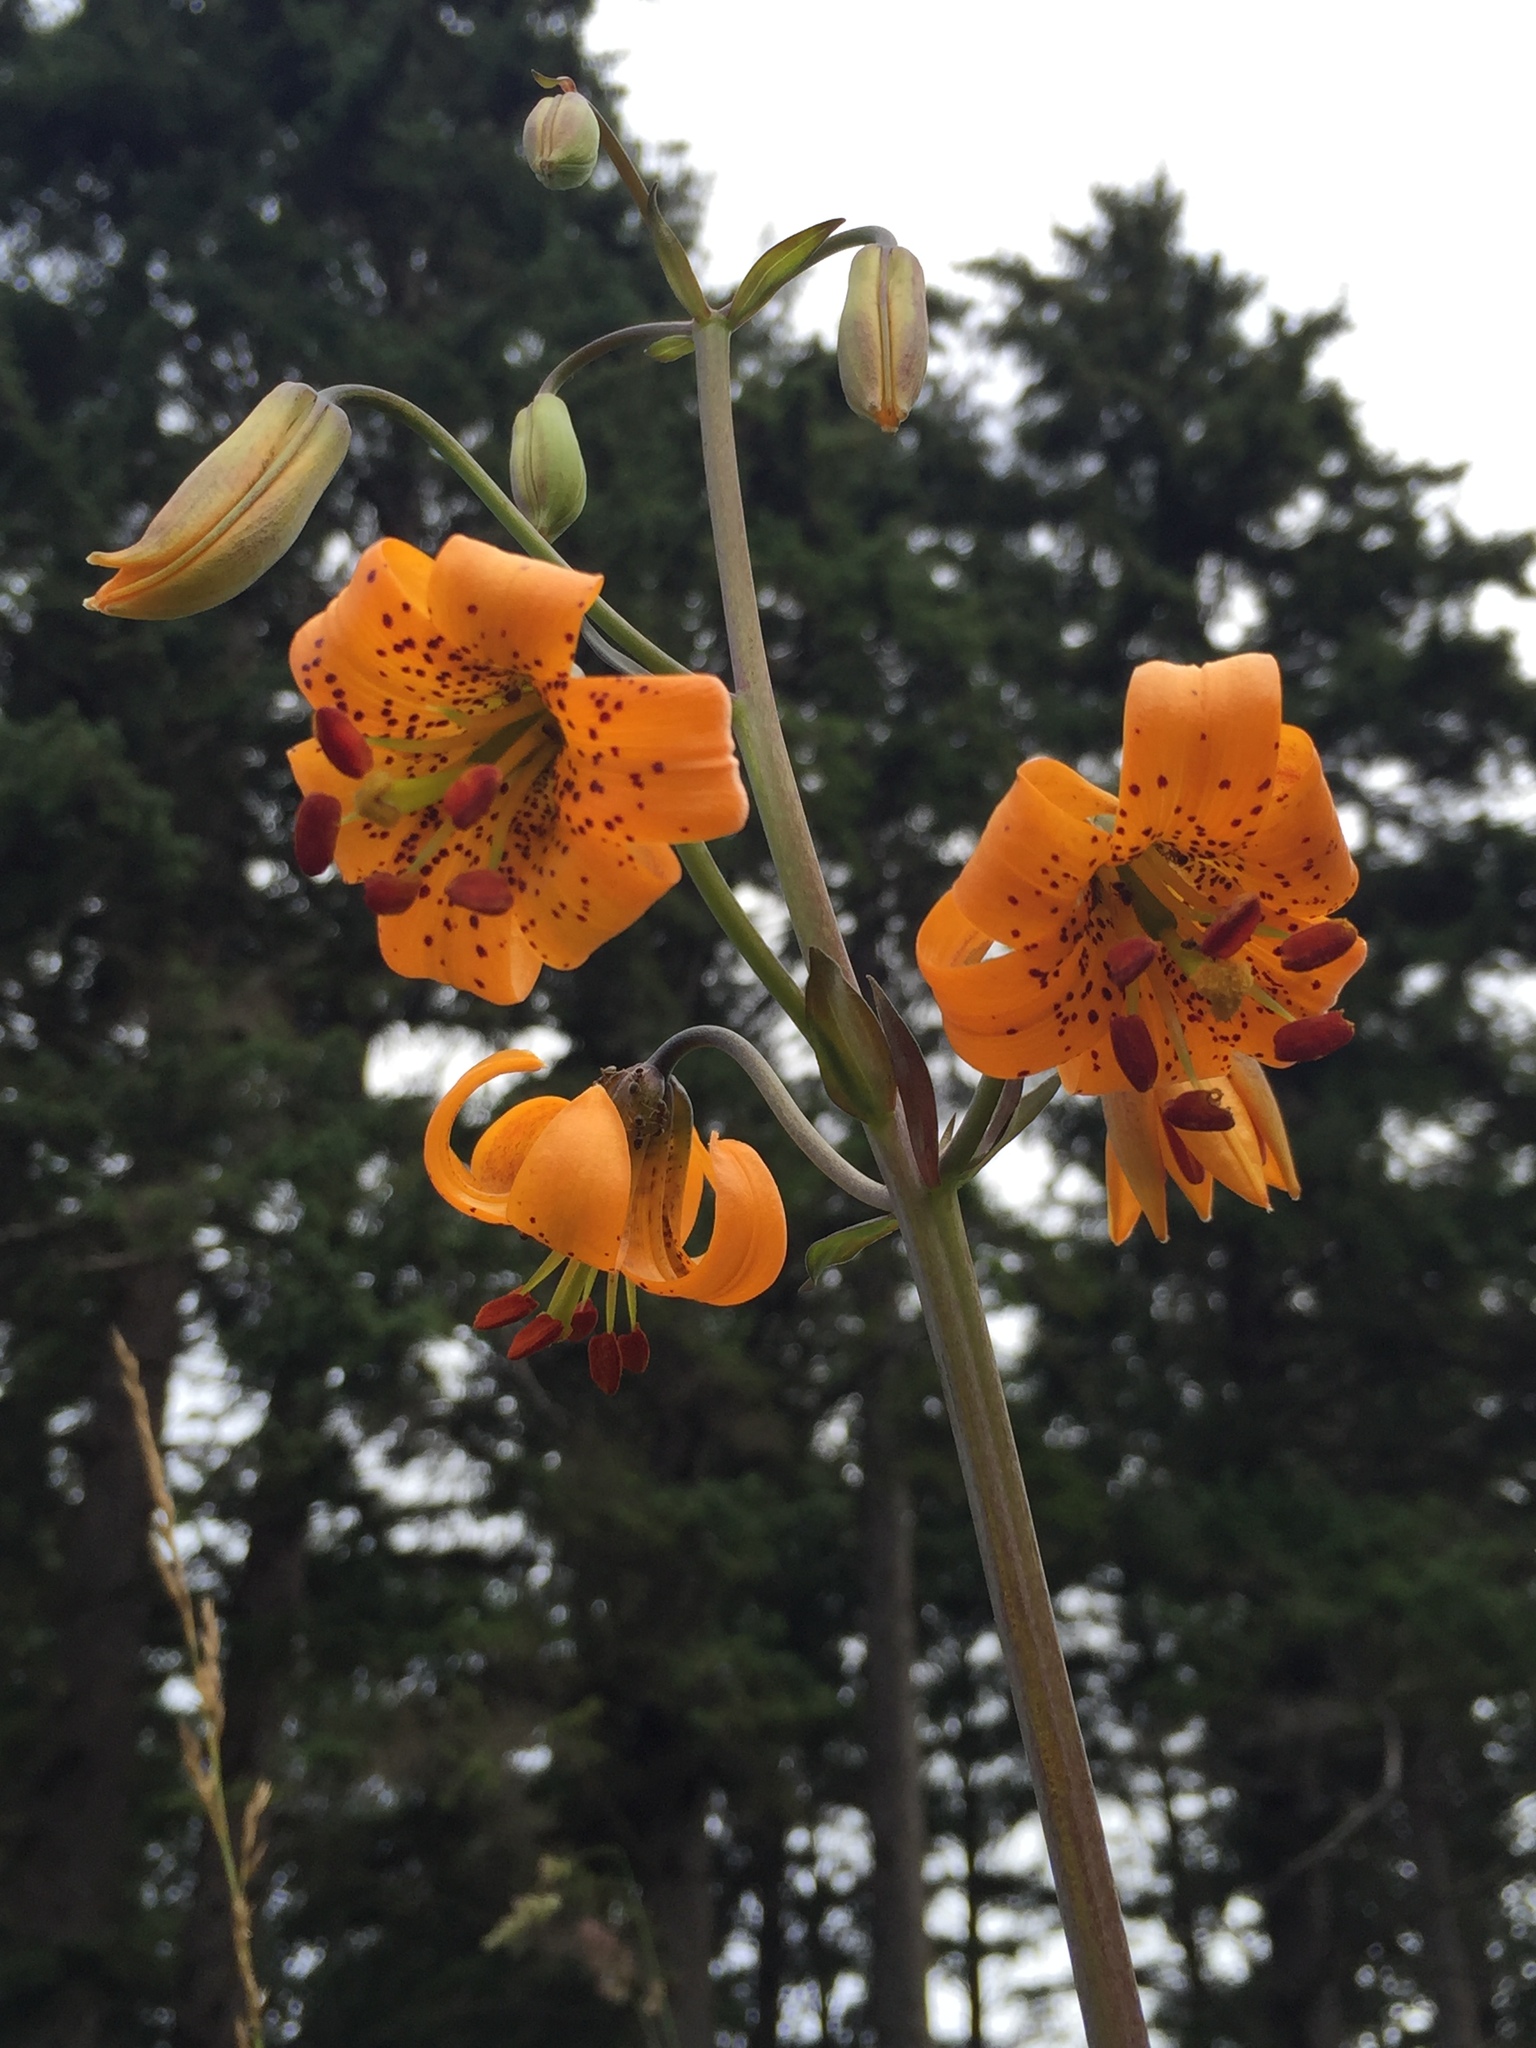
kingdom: Plantae
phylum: Tracheophyta
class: Liliopsida
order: Liliales
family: Liliaceae
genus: Lilium
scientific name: Lilium columbianum
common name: Columbia lily
